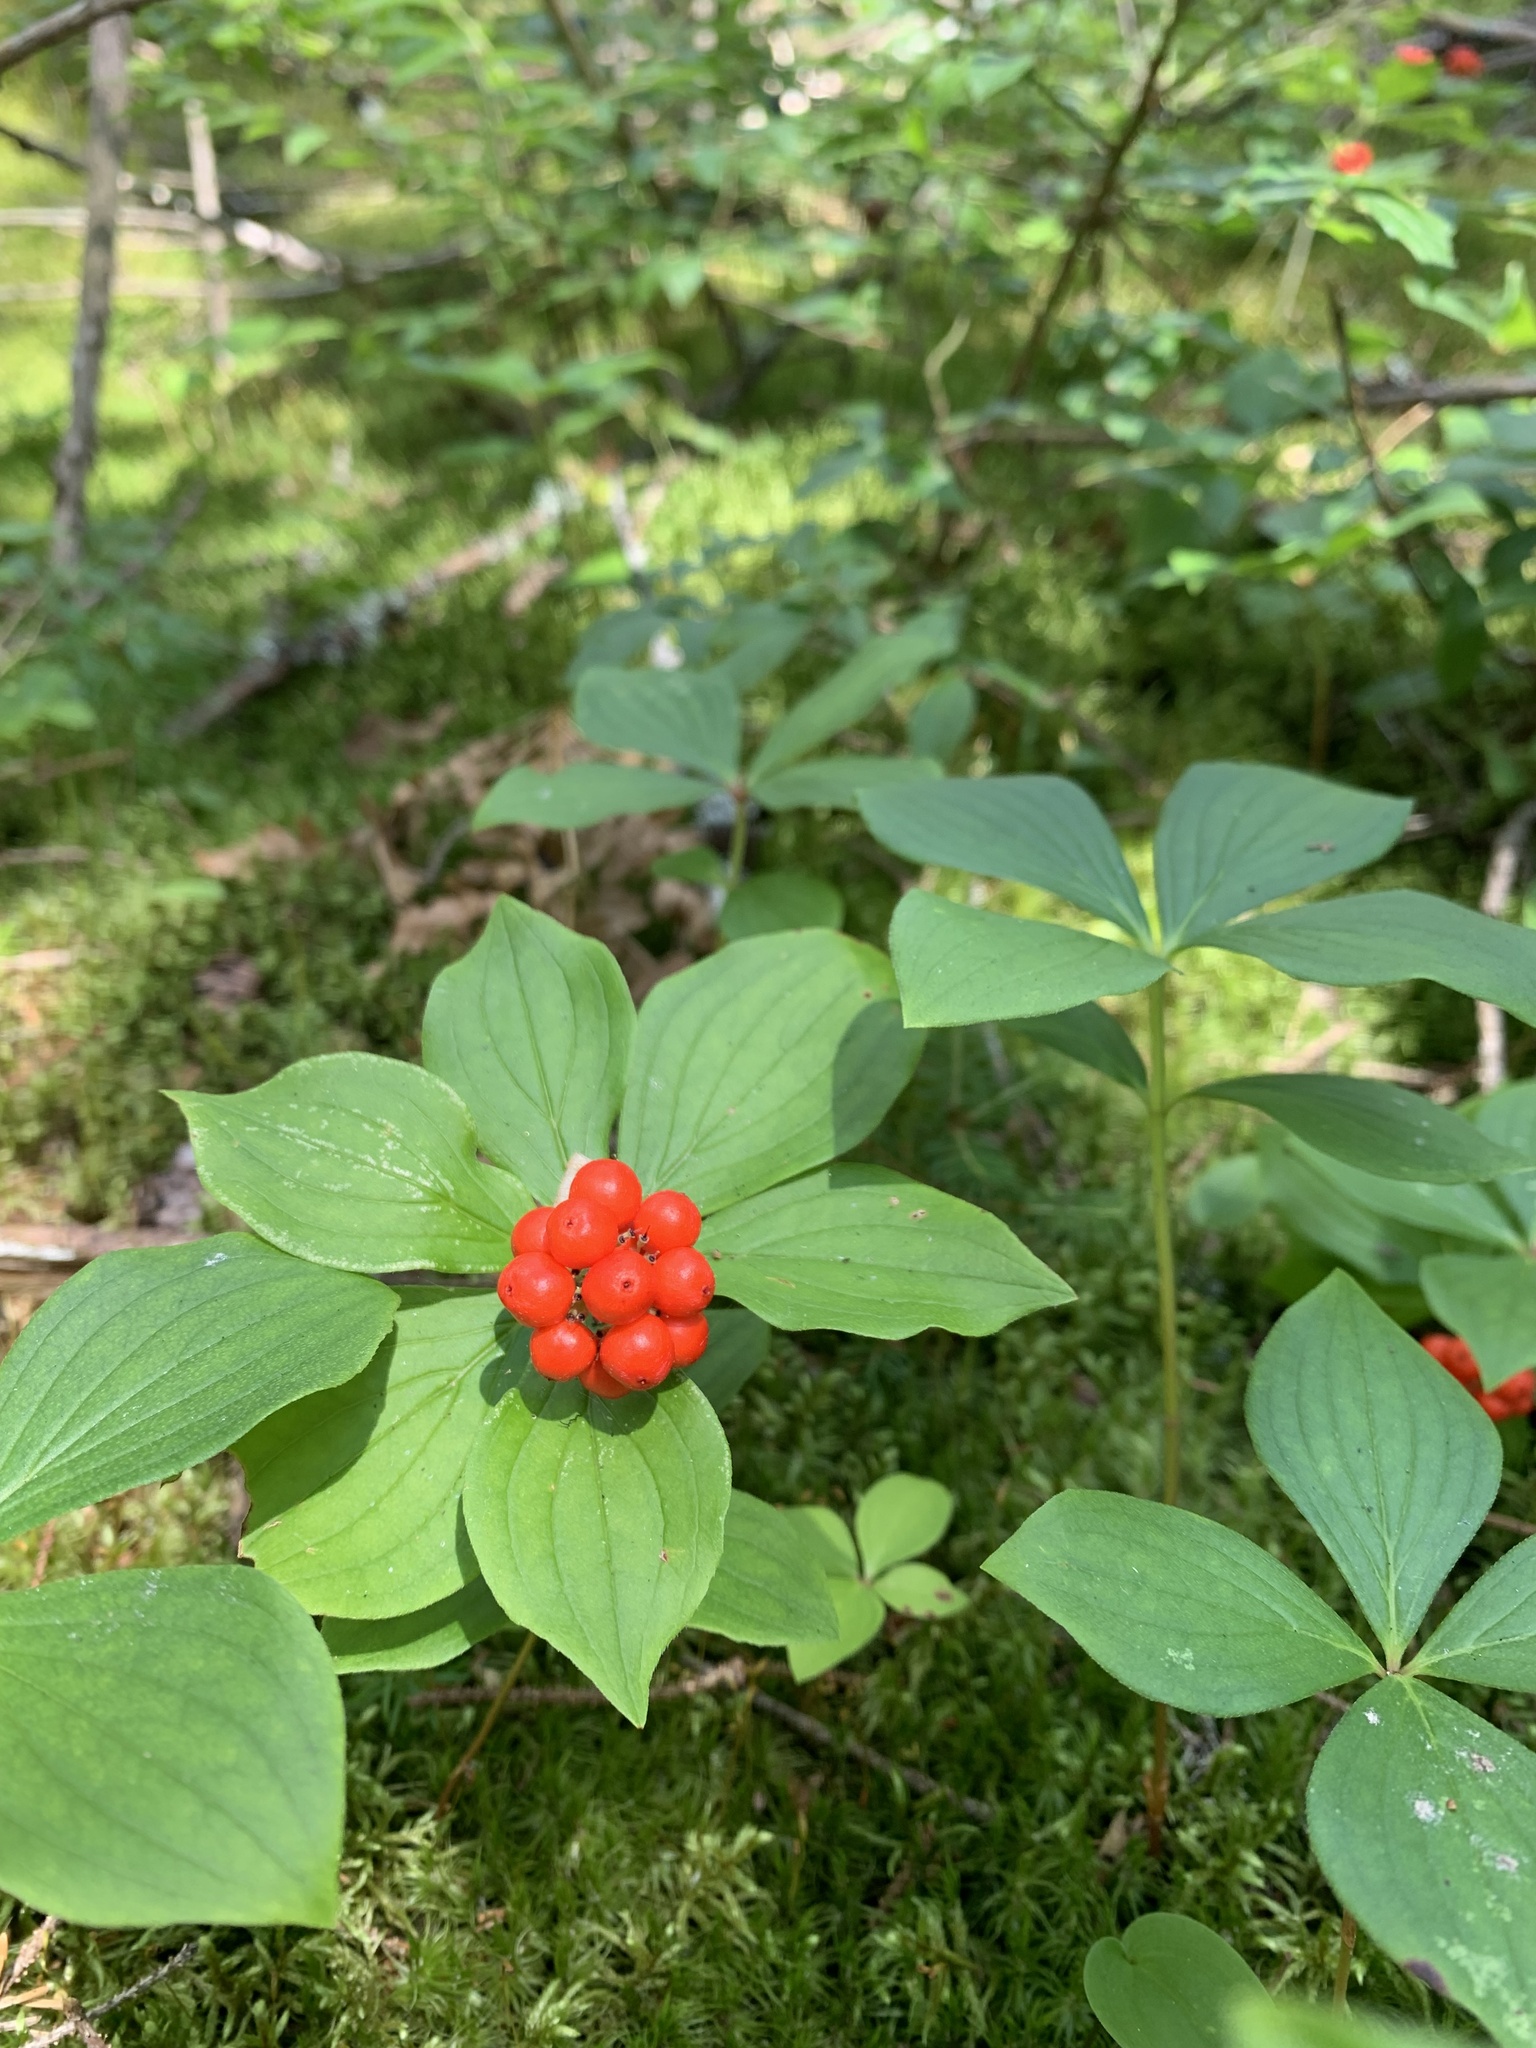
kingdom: Plantae
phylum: Tracheophyta
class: Magnoliopsida
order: Cornales
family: Cornaceae
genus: Cornus
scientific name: Cornus canadensis
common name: Creeping dogwood
